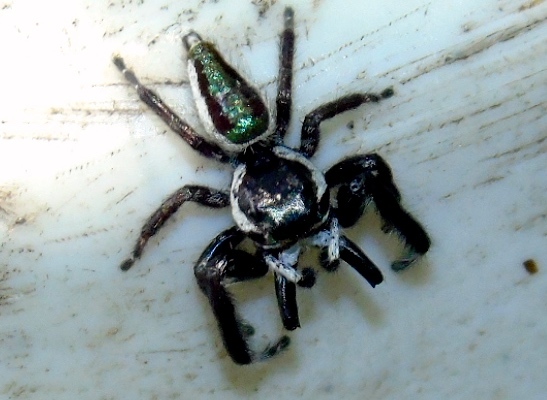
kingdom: Animalia
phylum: Arthropoda
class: Arachnida
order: Araneae
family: Salticidae
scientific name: Salticidae
